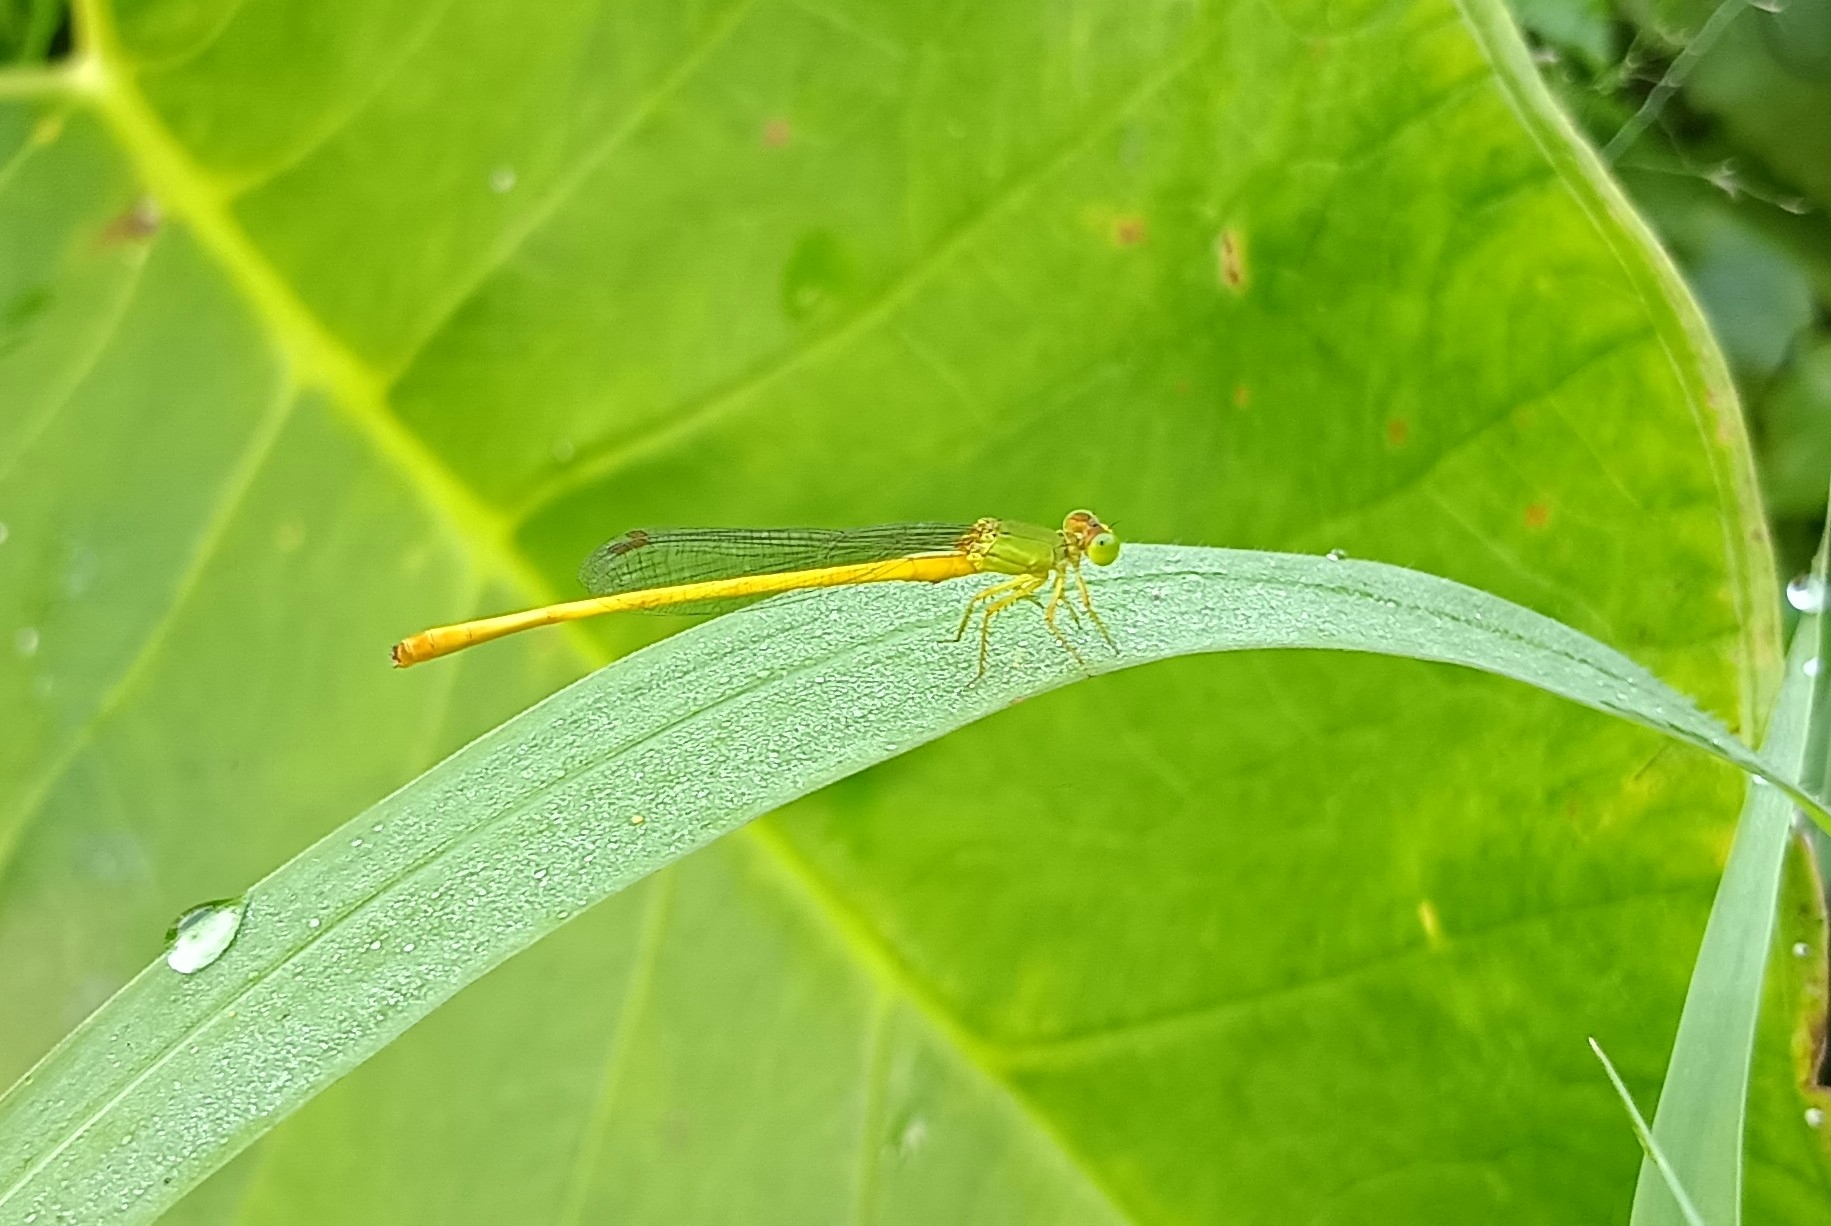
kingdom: Animalia
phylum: Arthropoda
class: Insecta
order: Odonata
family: Coenagrionidae
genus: Ceriagrion
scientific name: Ceriagrion coromandelianum
